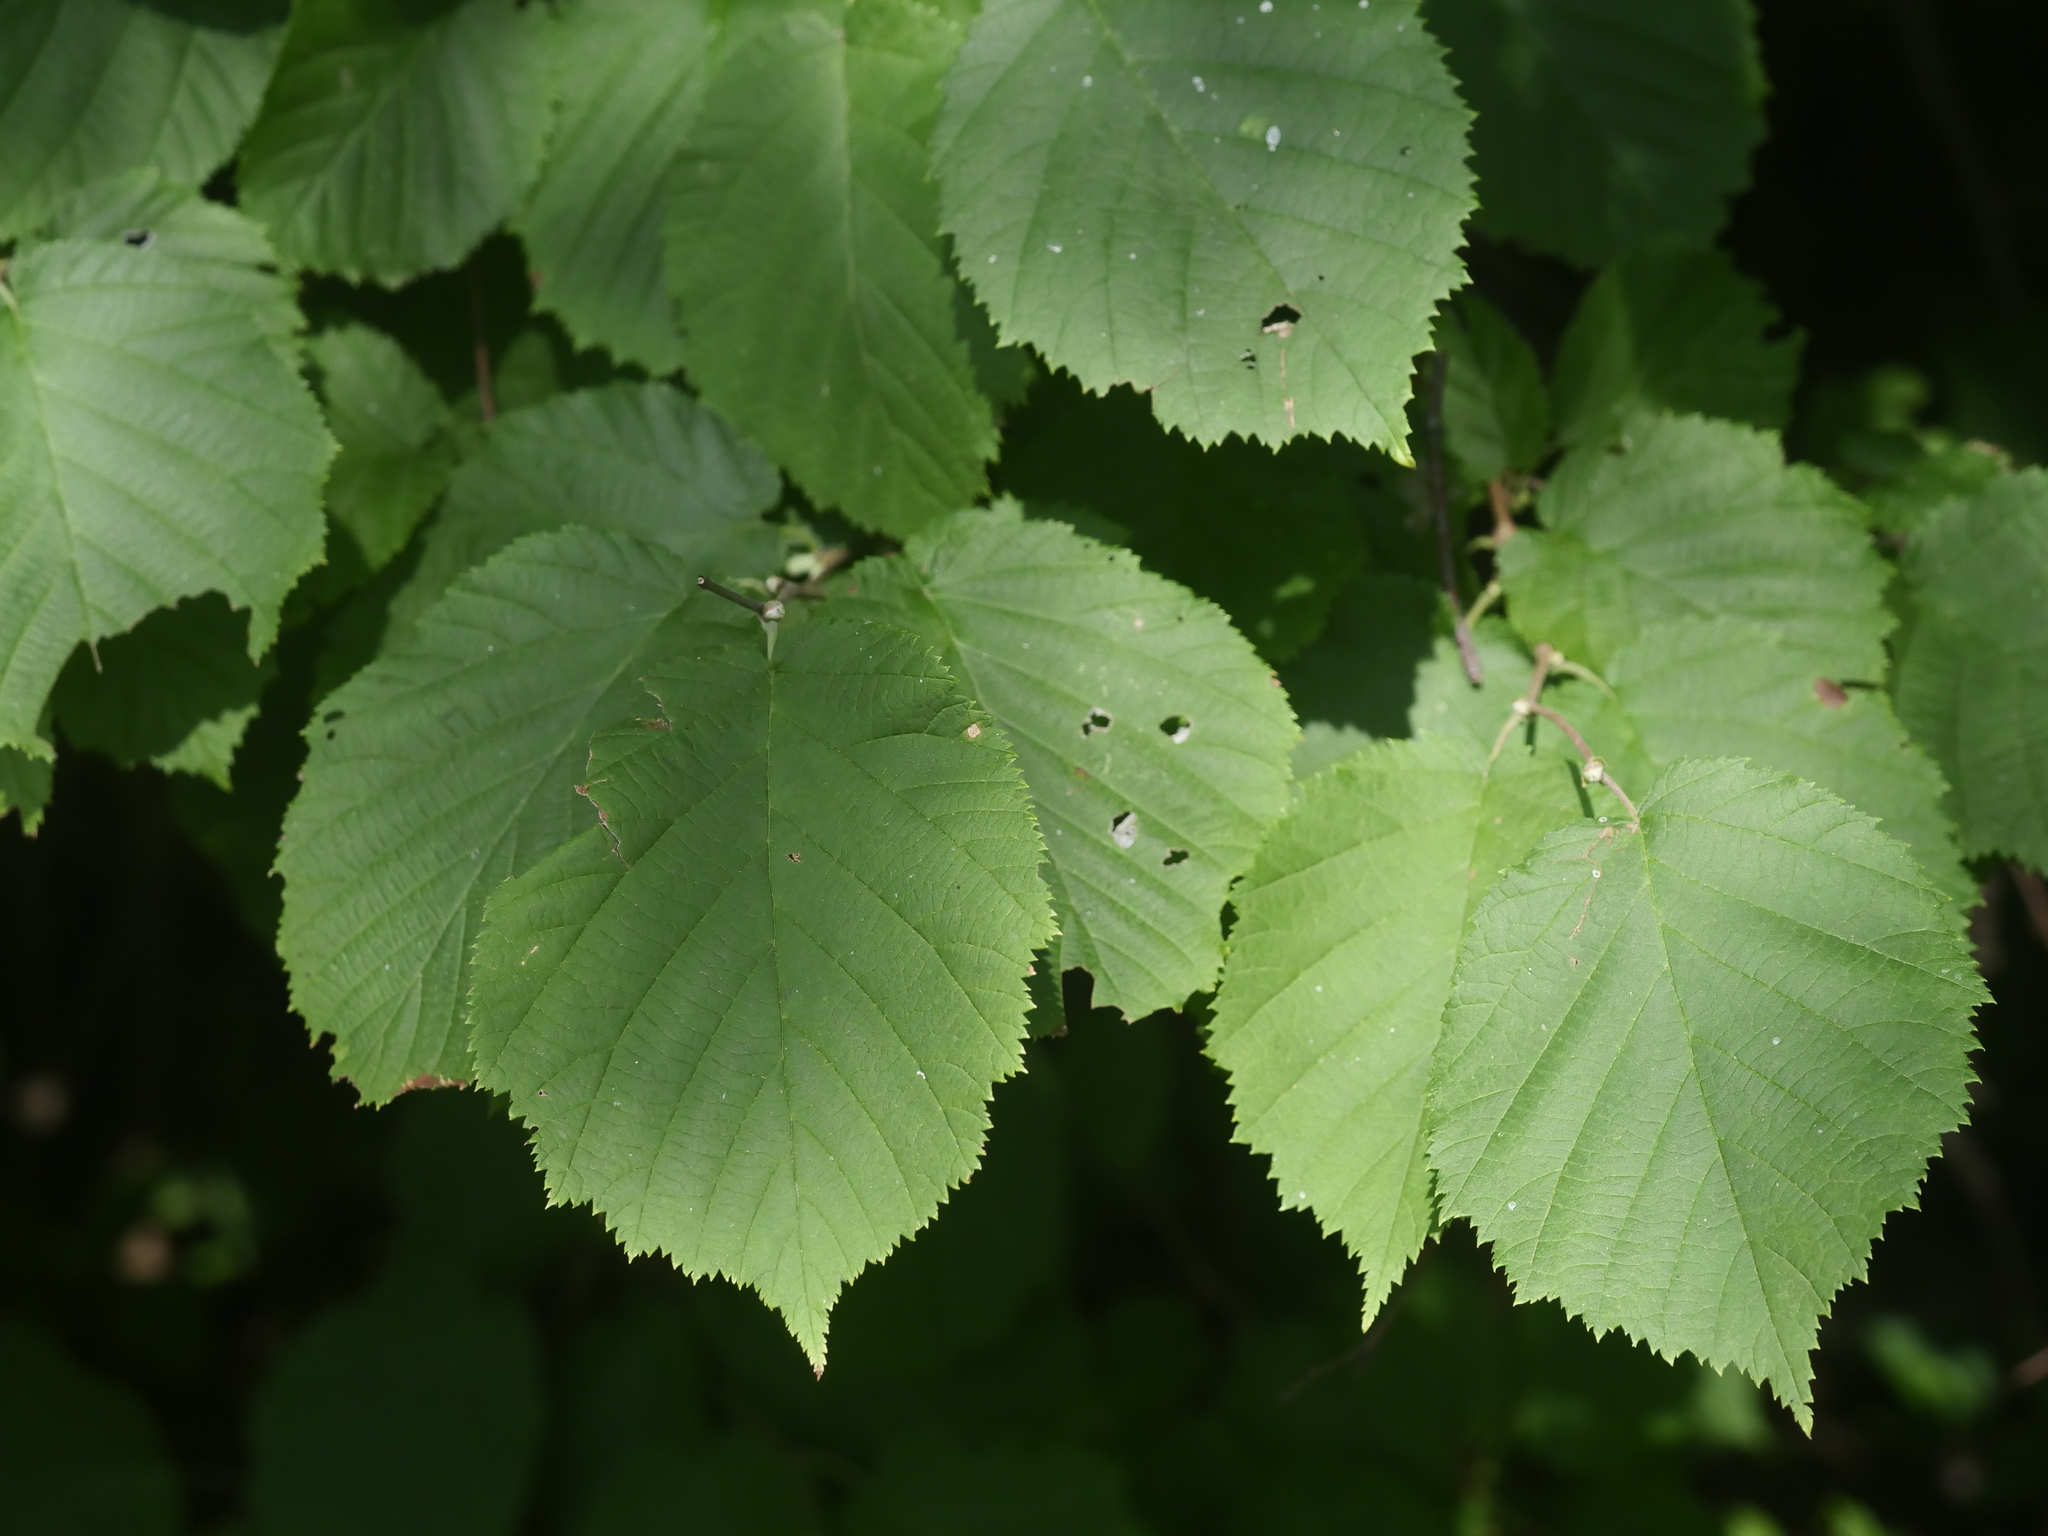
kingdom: Plantae
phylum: Tracheophyta
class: Magnoliopsida
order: Fagales
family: Betulaceae
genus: Corylus
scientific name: Corylus cornuta
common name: Beaked hazel
